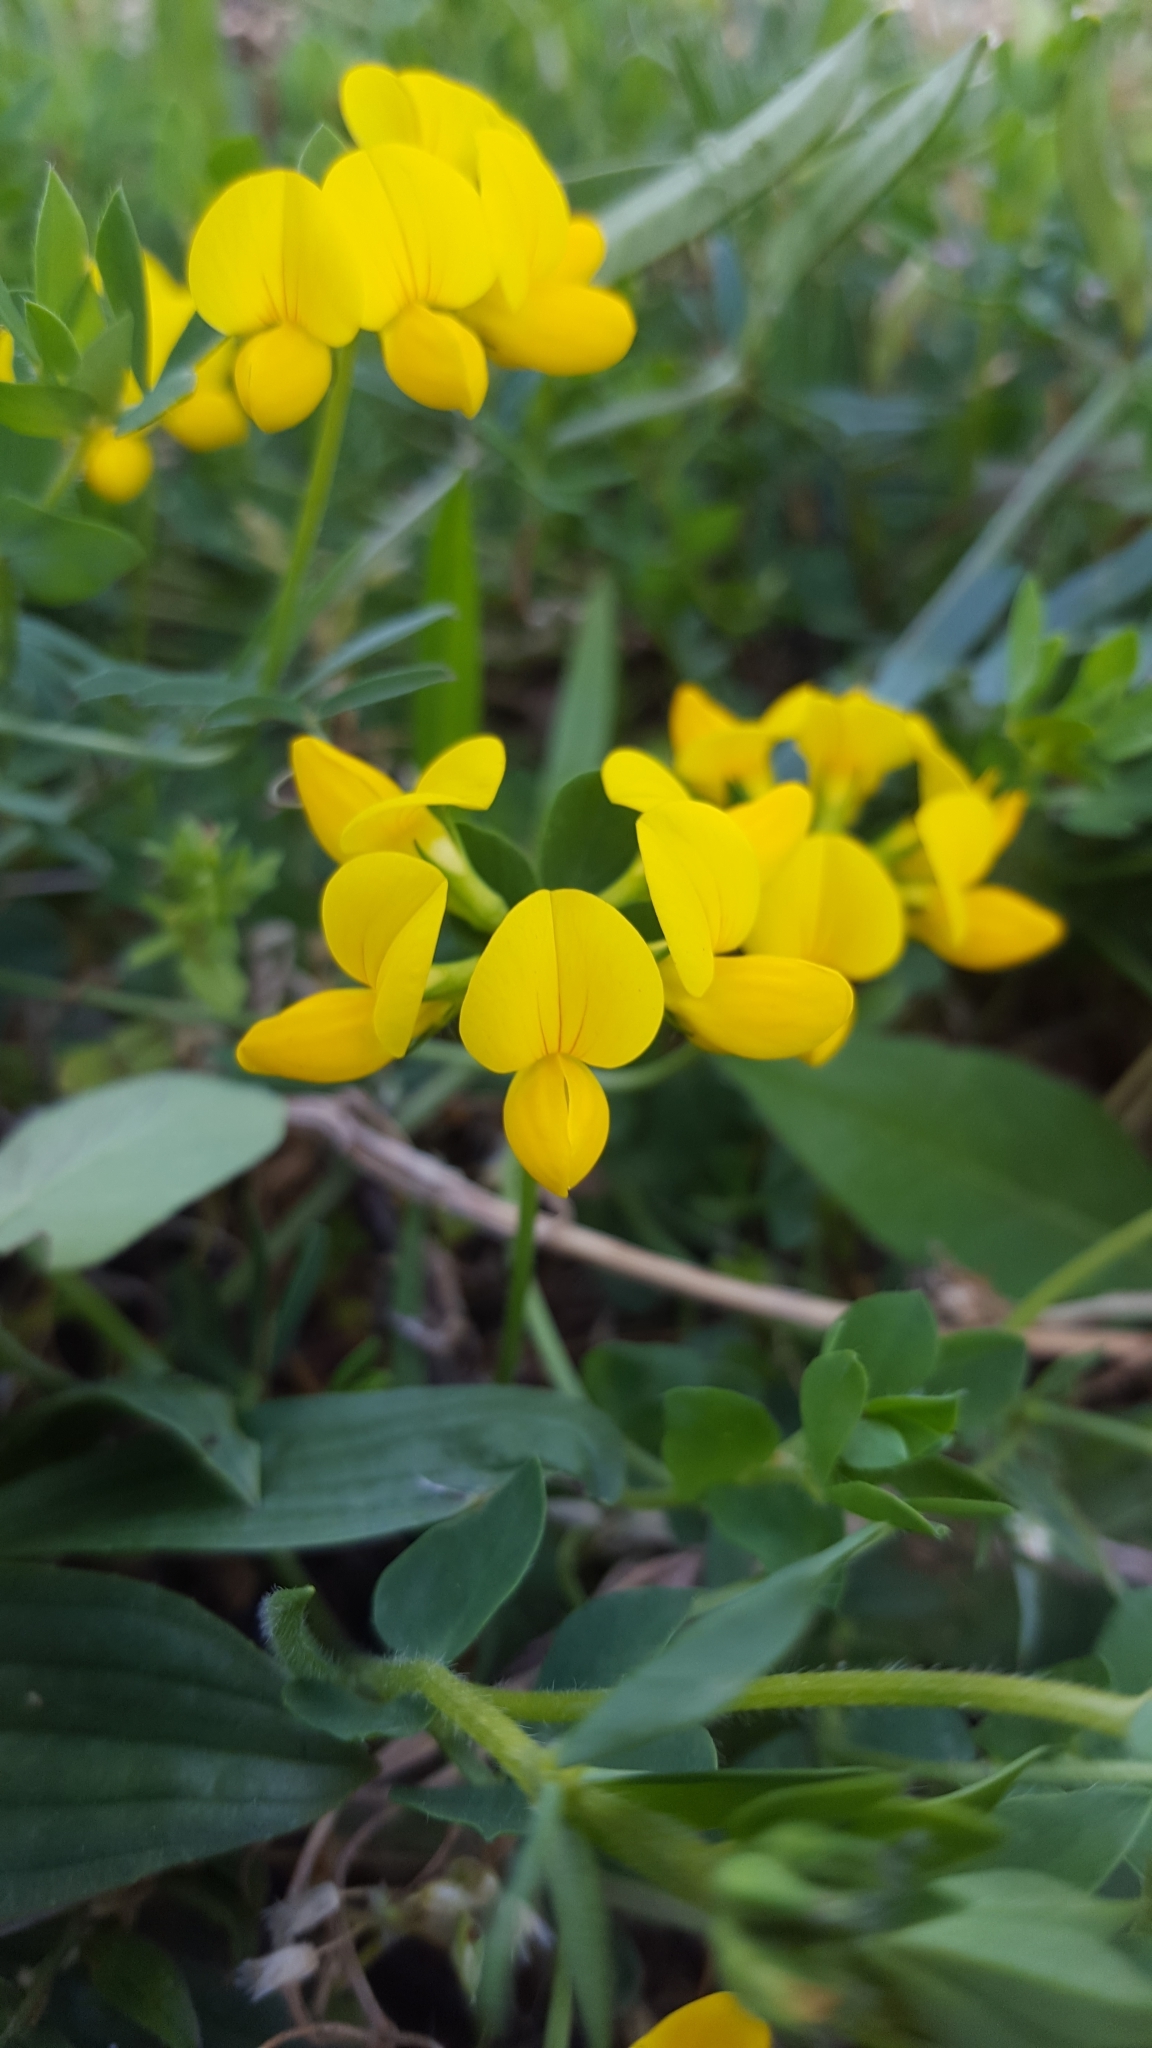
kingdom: Plantae
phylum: Tracheophyta
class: Magnoliopsida
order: Fabales
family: Fabaceae
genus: Lotus
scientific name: Lotus corniculatus
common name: Common bird's-foot-trefoil
